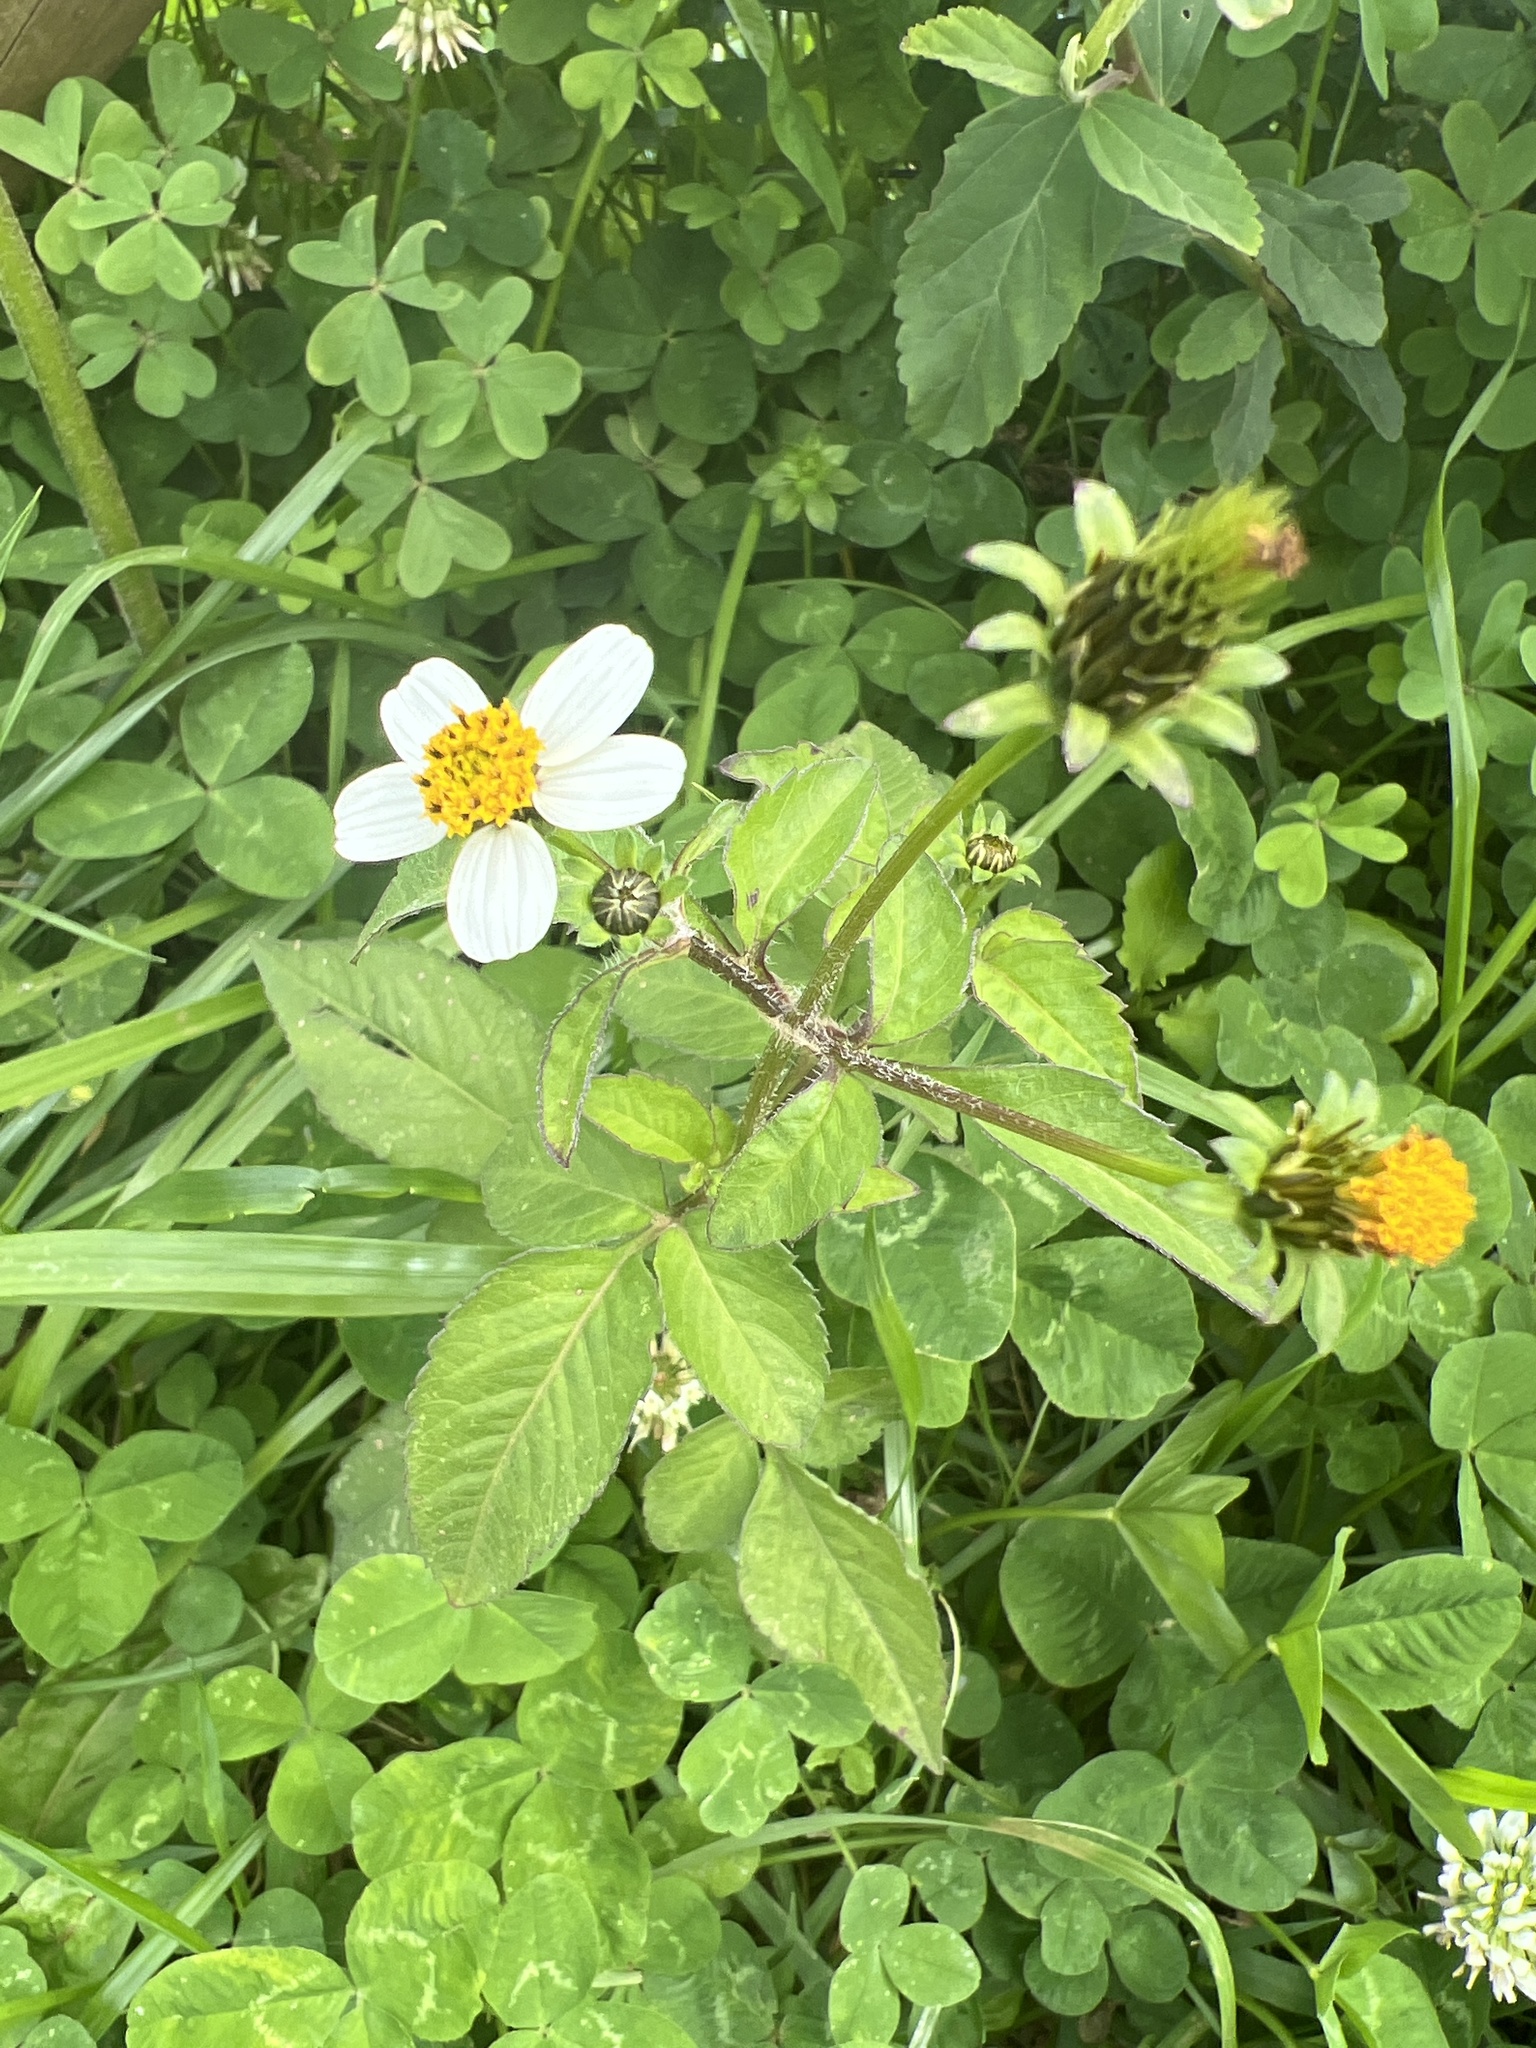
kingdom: Plantae
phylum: Tracheophyta
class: Magnoliopsida
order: Asterales
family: Asteraceae
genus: Bidens
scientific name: Bidens pilosa
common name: Black-jack
